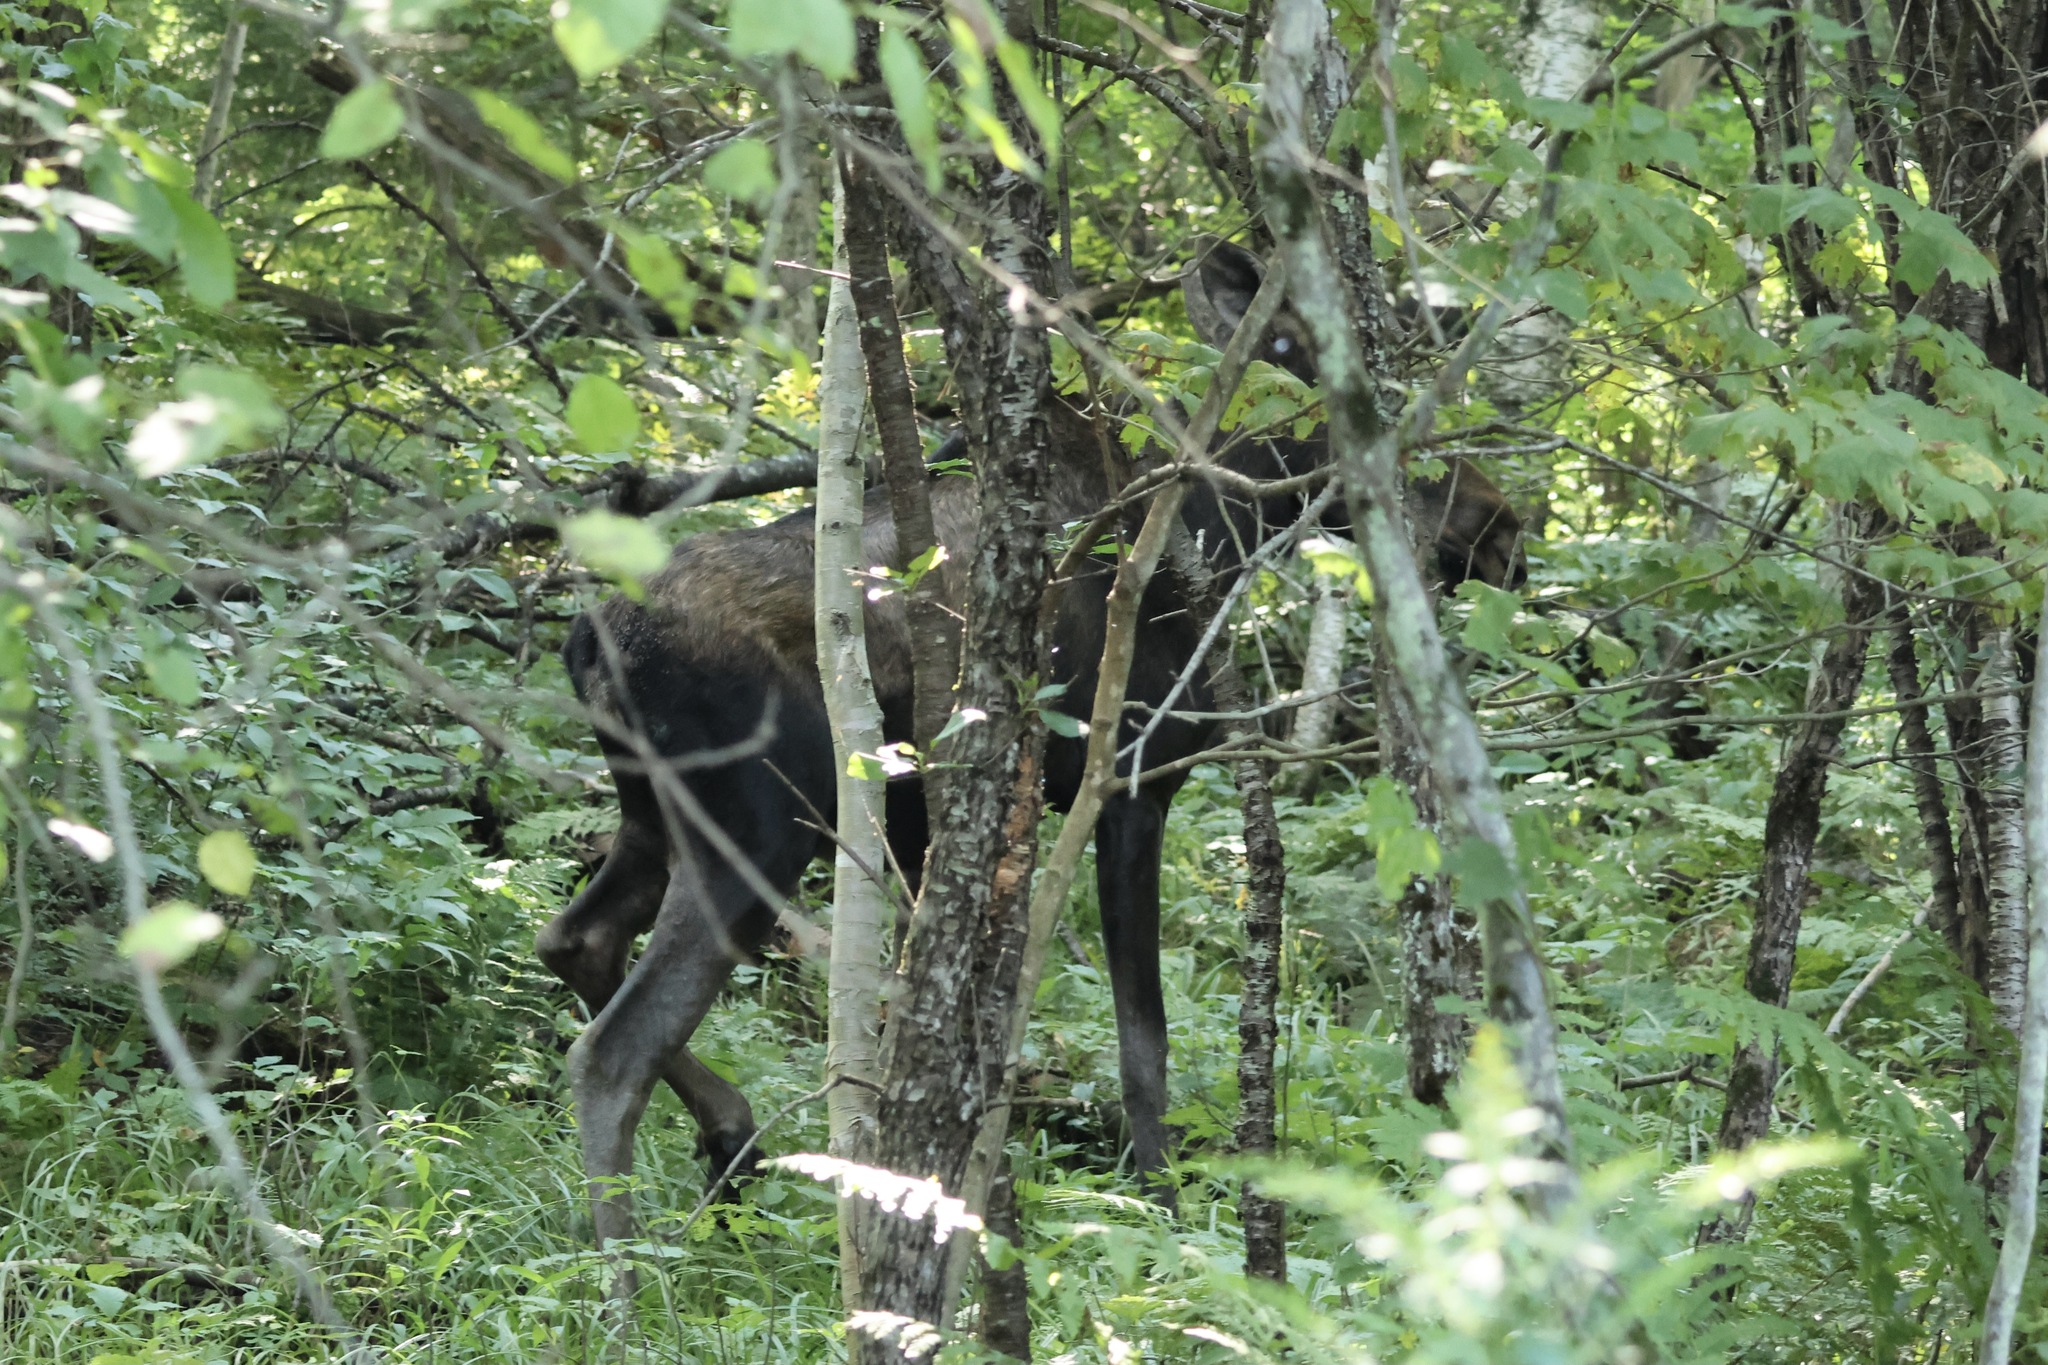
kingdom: Animalia
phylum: Chordata
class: Mammalia
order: Artiodactyla
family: Cervidae
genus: Alces
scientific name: Alces alces
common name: Moose
